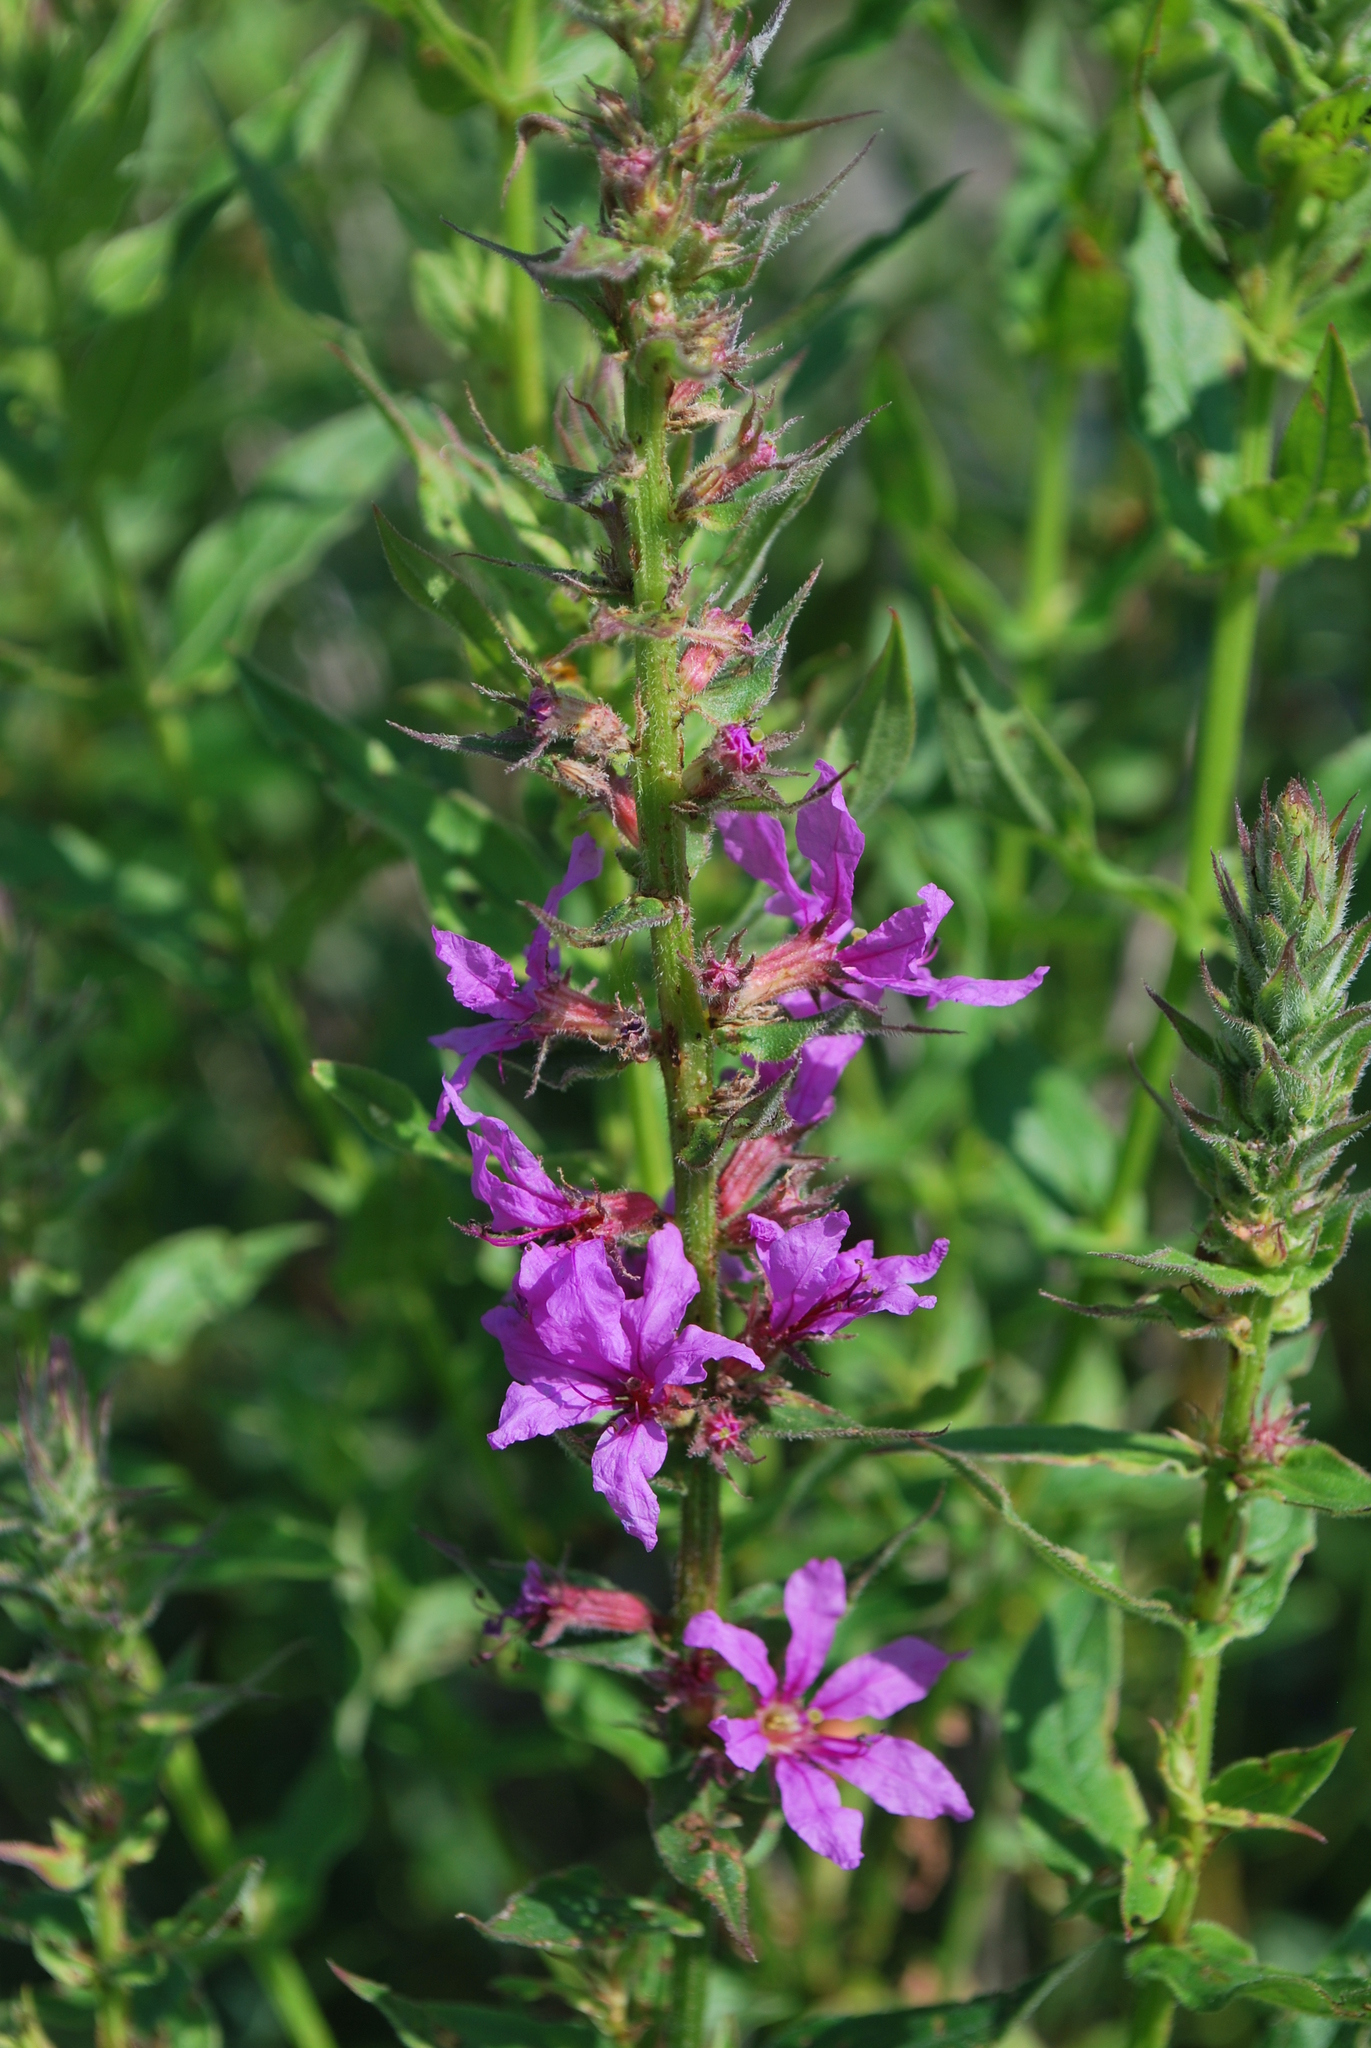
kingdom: Plantae
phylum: Tracheophyta
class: Magnoliopsida
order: Myrtales
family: Lythraceae
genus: Lythrum
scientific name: Lythrum salicaria
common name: Purple loosestrife
